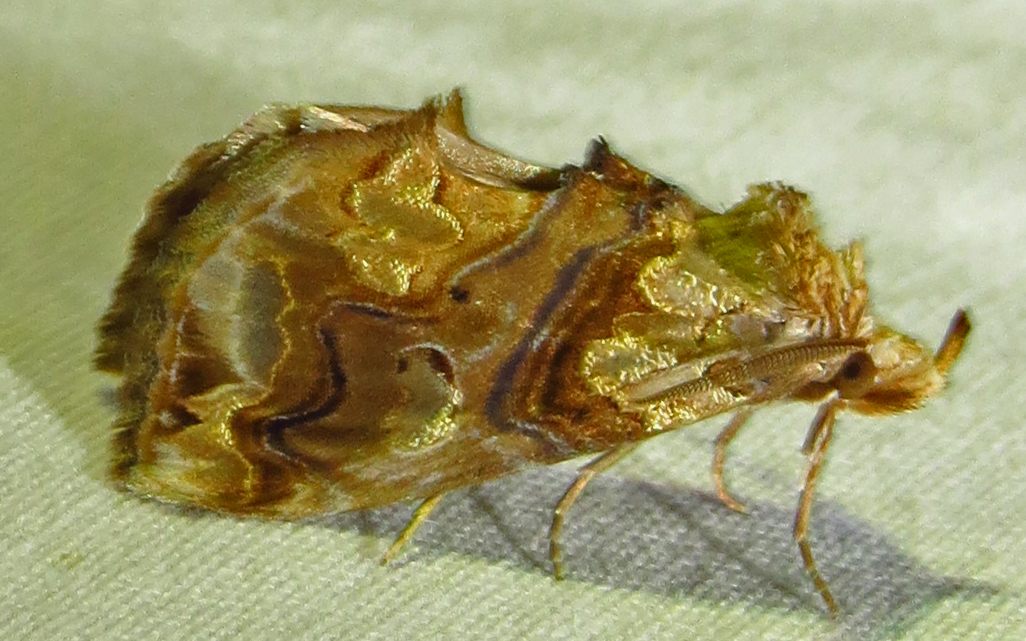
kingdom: Animalia
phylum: Arthropoda
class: Insecta
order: Lepidoptera
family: Erebidae
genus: Plusiodonta
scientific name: Plusiodonta compressipalpis
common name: Moonseed moth
